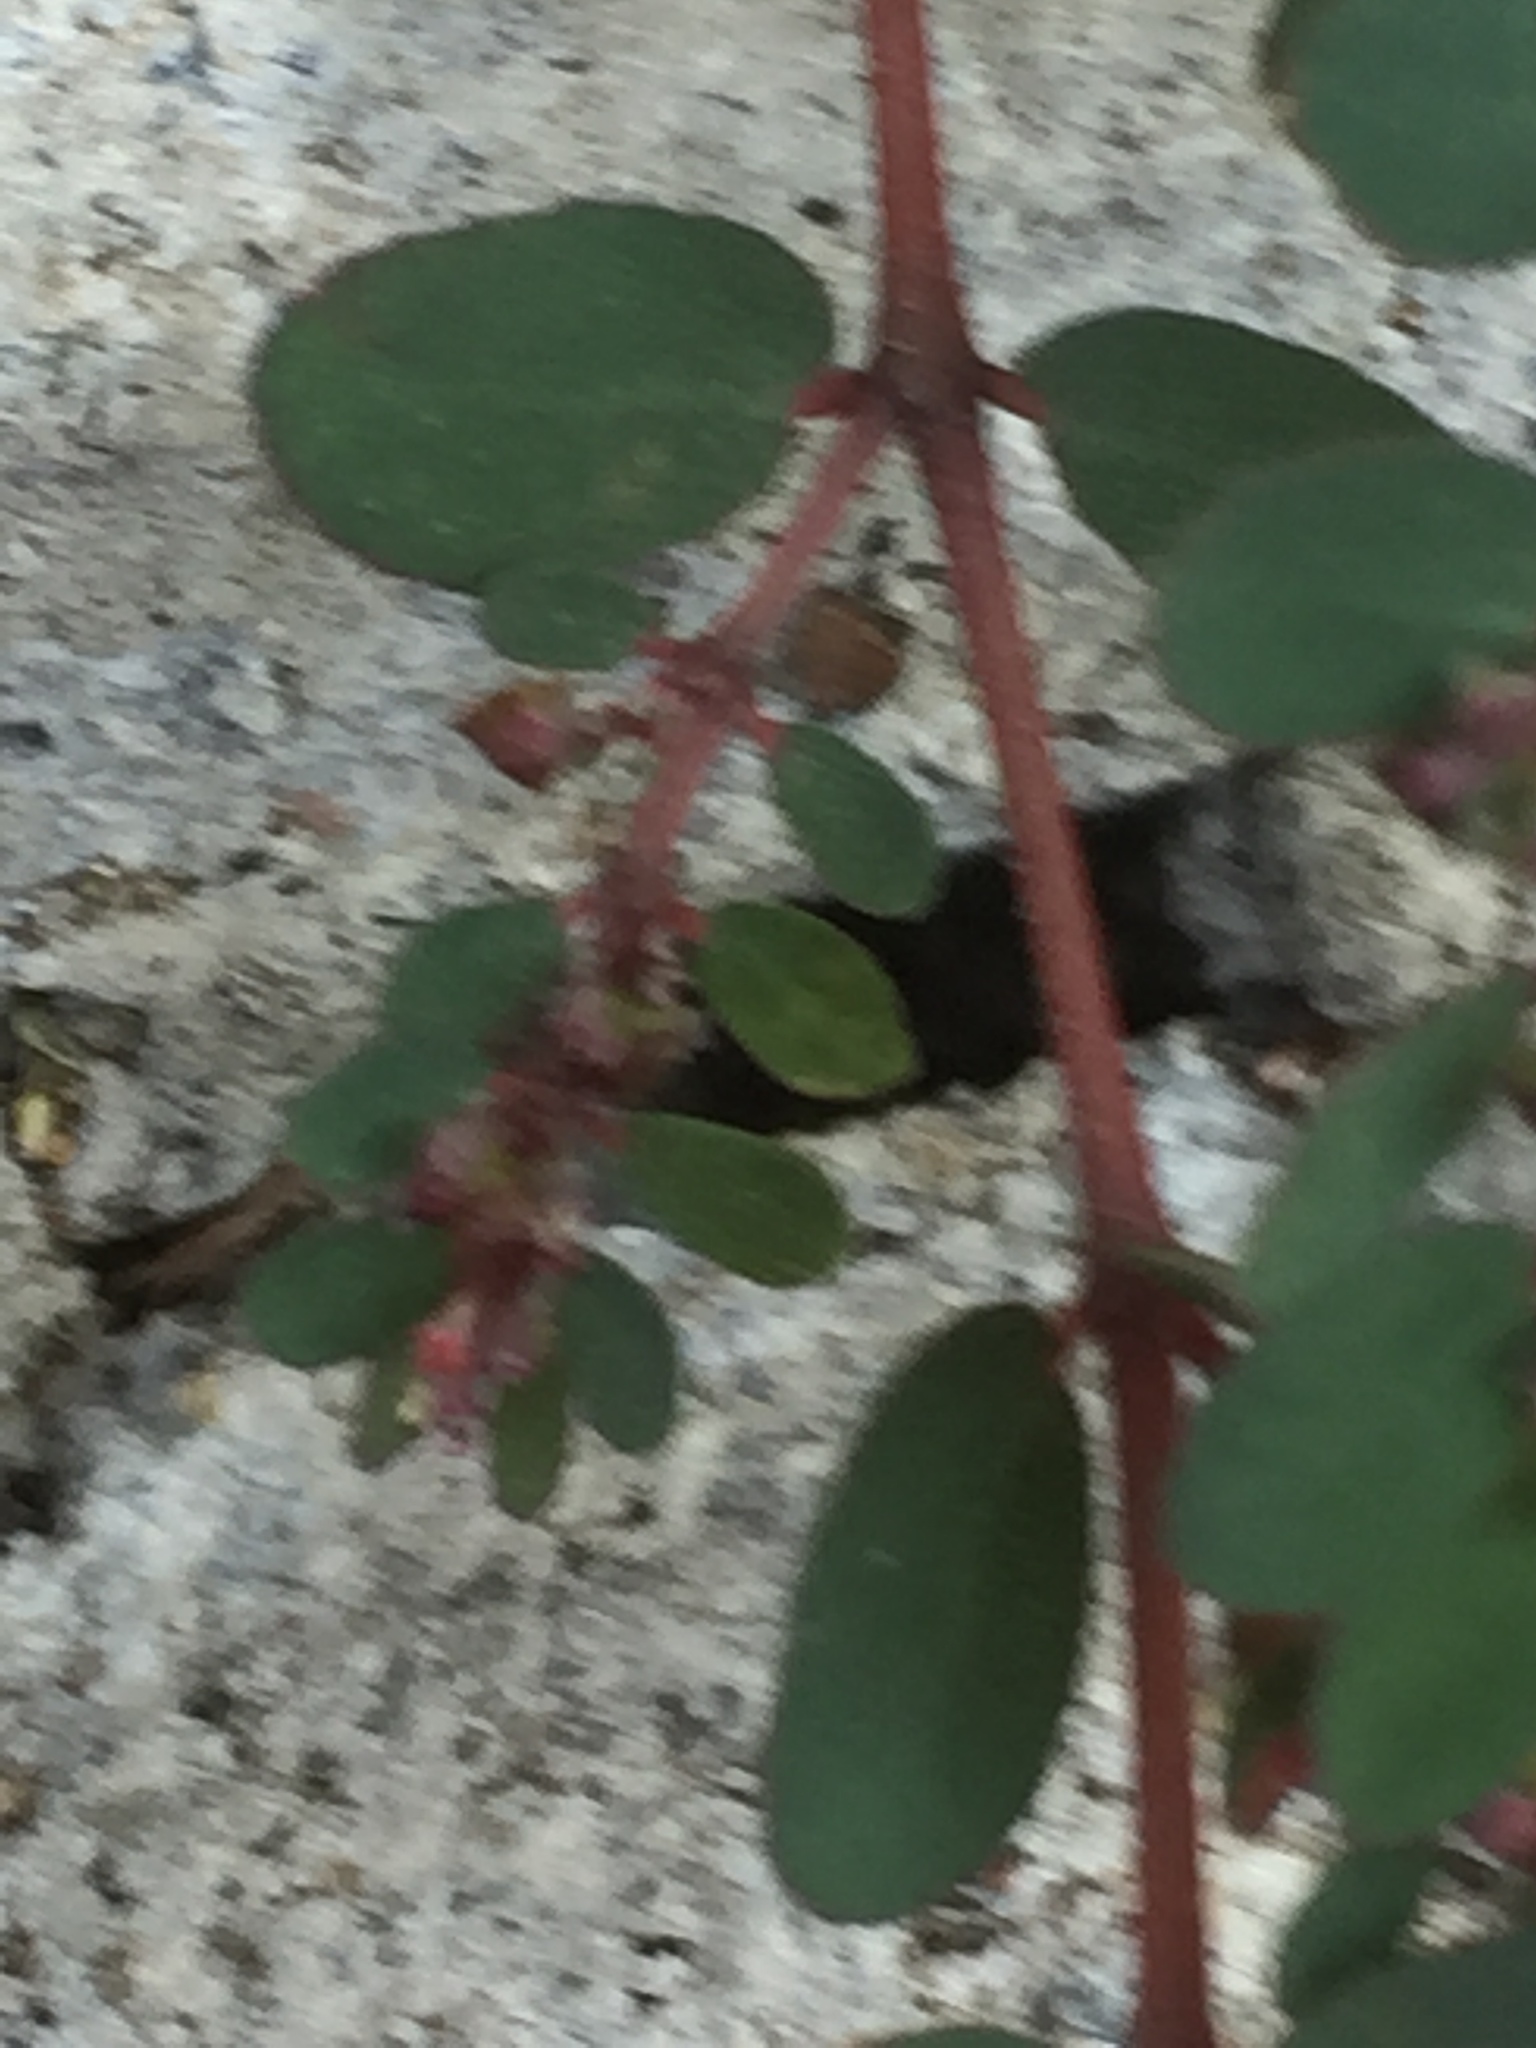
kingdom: Plantae
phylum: Tracheophyta
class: Magnoliopsida
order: Malpighiales
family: Euphorbiaceae
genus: Euphorbia
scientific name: Euphorbia prostrata
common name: Prostrate sandmat
